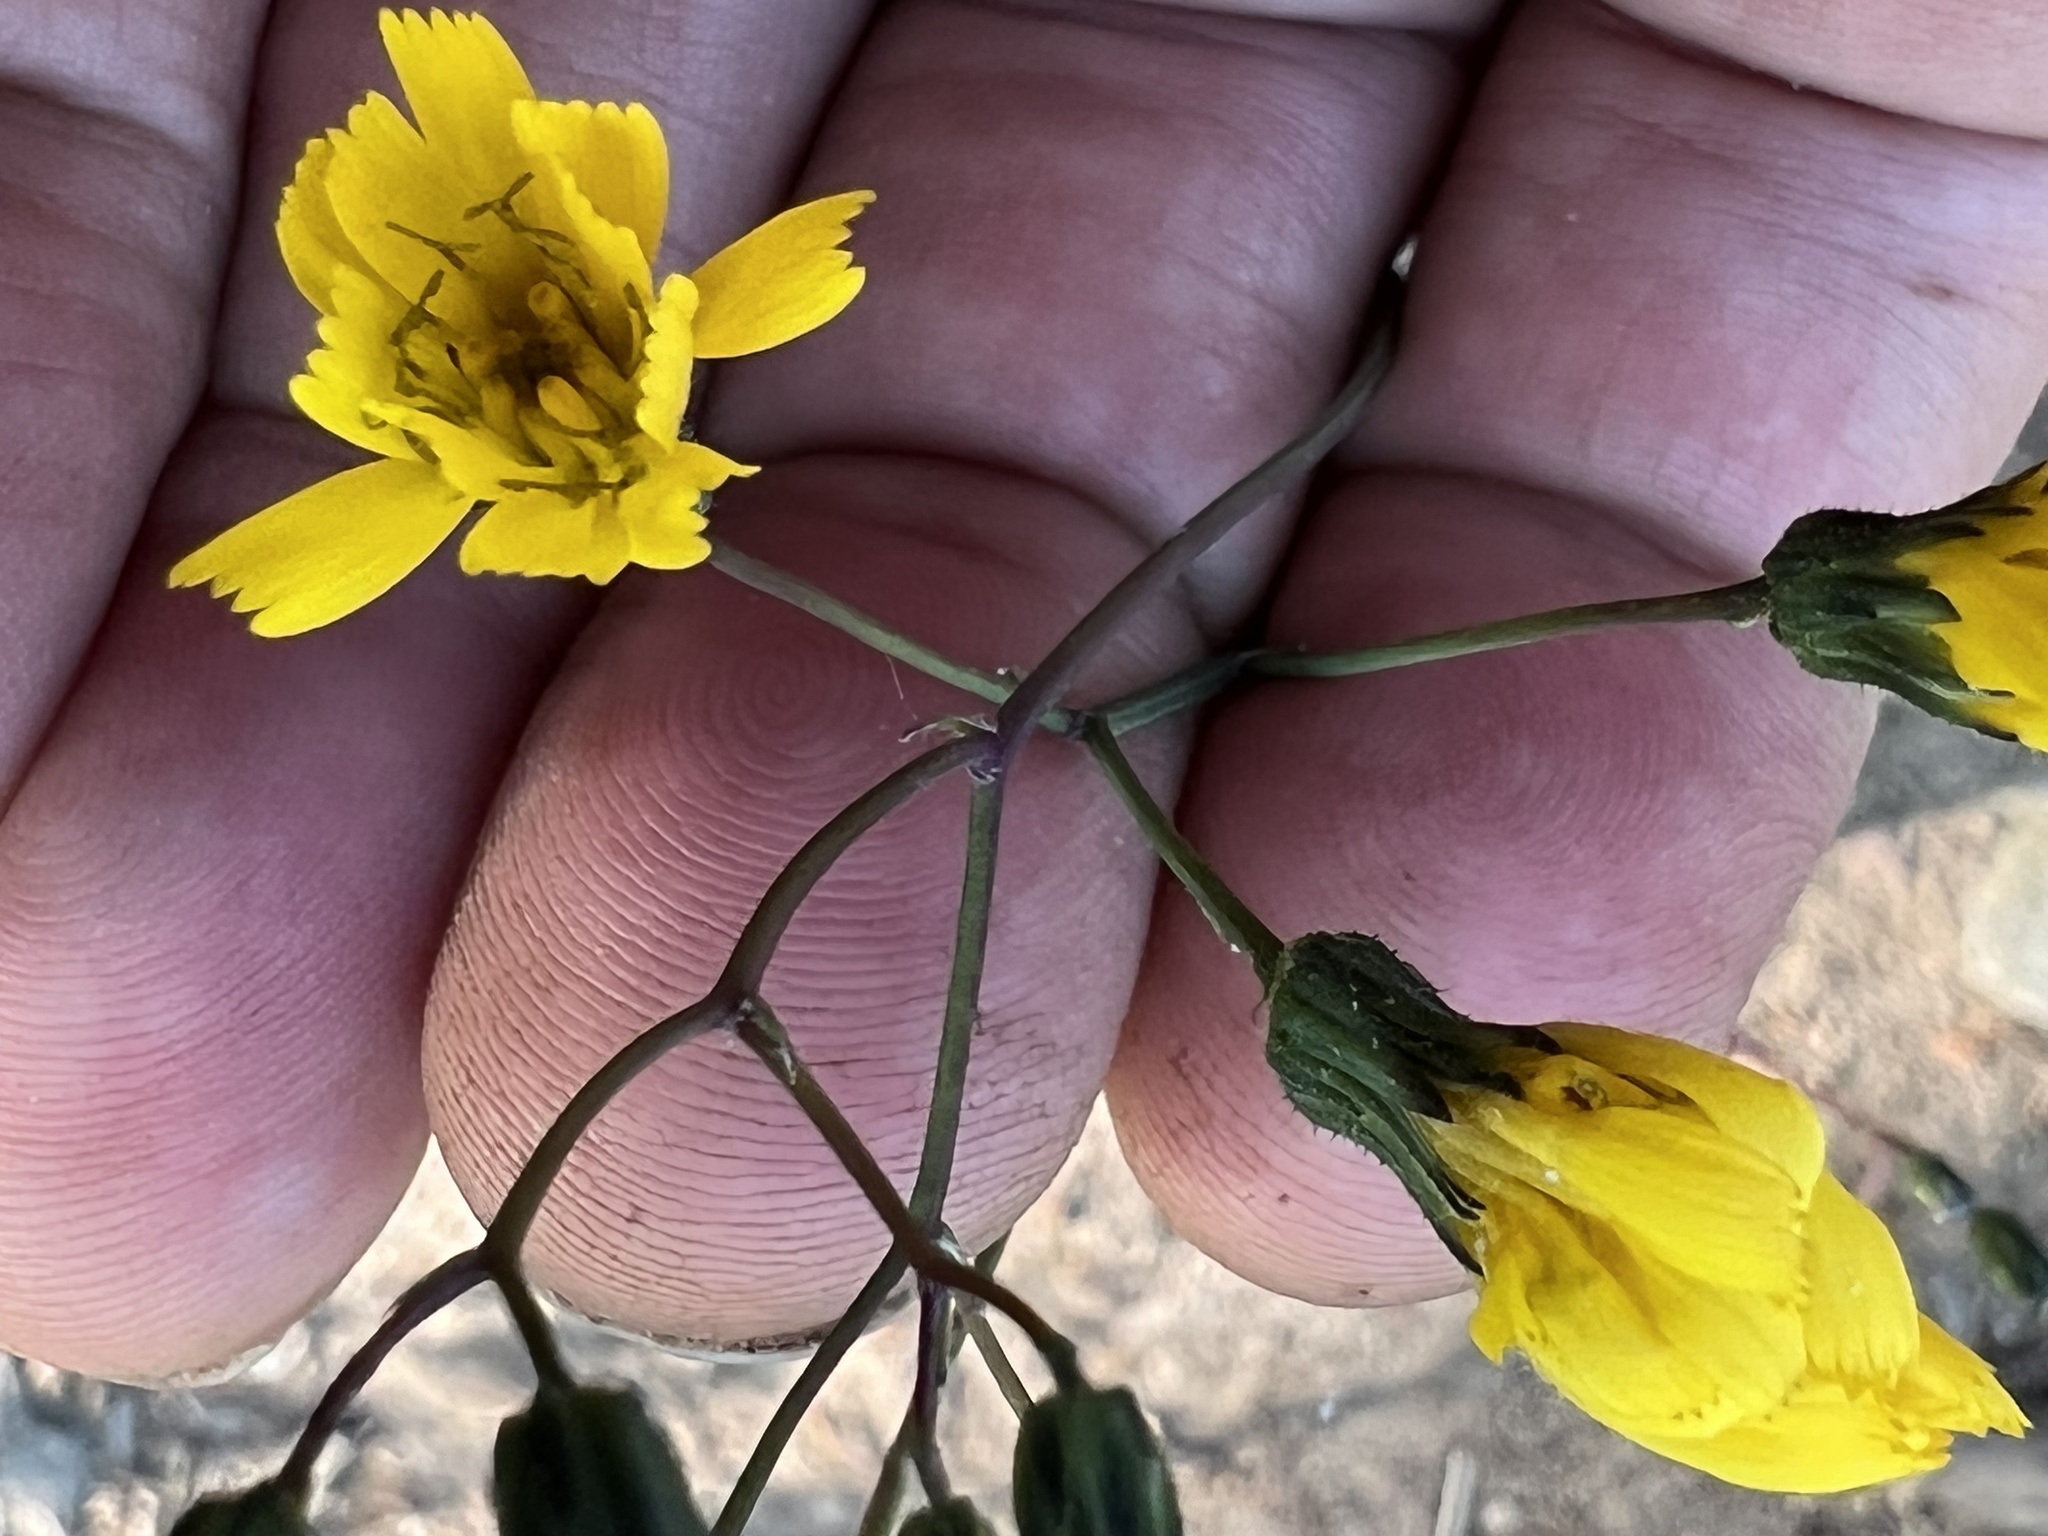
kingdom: Plantae
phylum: Tracheophyta
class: Magnoliopsida
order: Asterales
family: Asteraceae
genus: Hieracium
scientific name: Hieracium venosum
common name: Rattlesnake hawkweed
